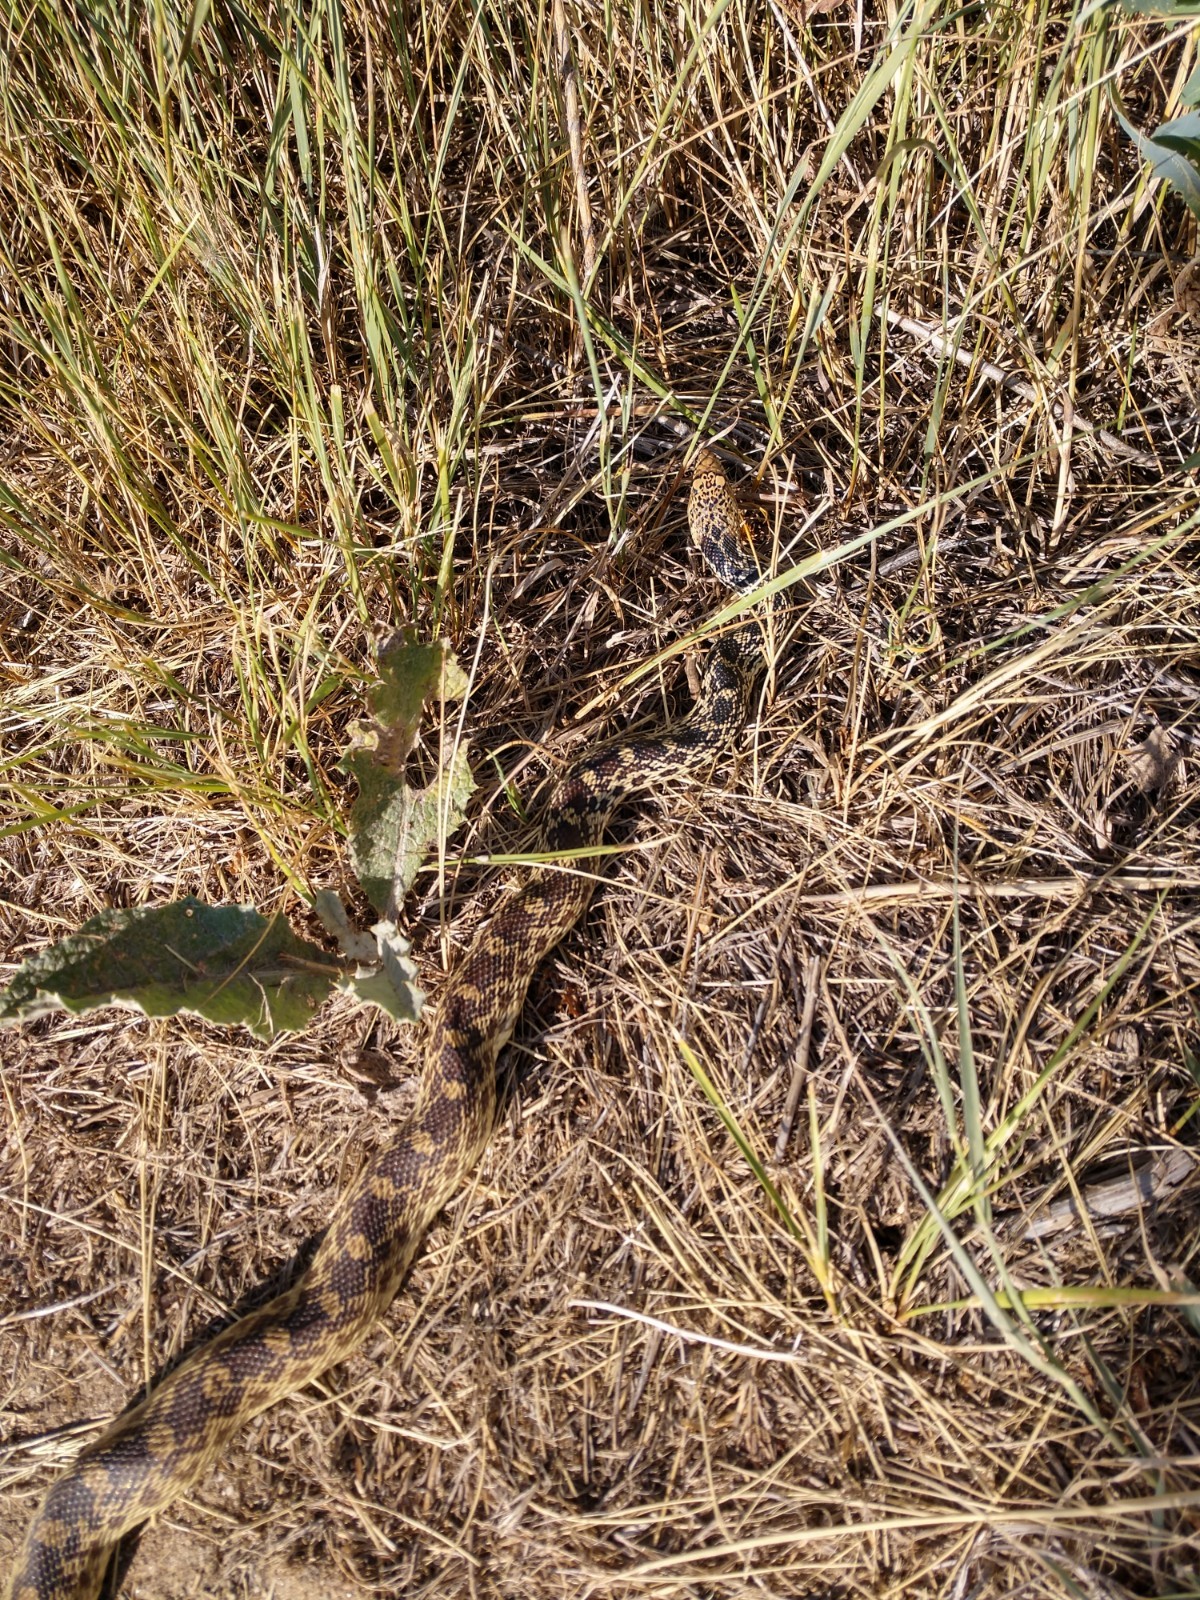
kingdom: Animalia
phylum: Chordata
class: Squamata
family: Colubridae
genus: Pituophis
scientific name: Pituophis catenifer
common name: Gopher snake
